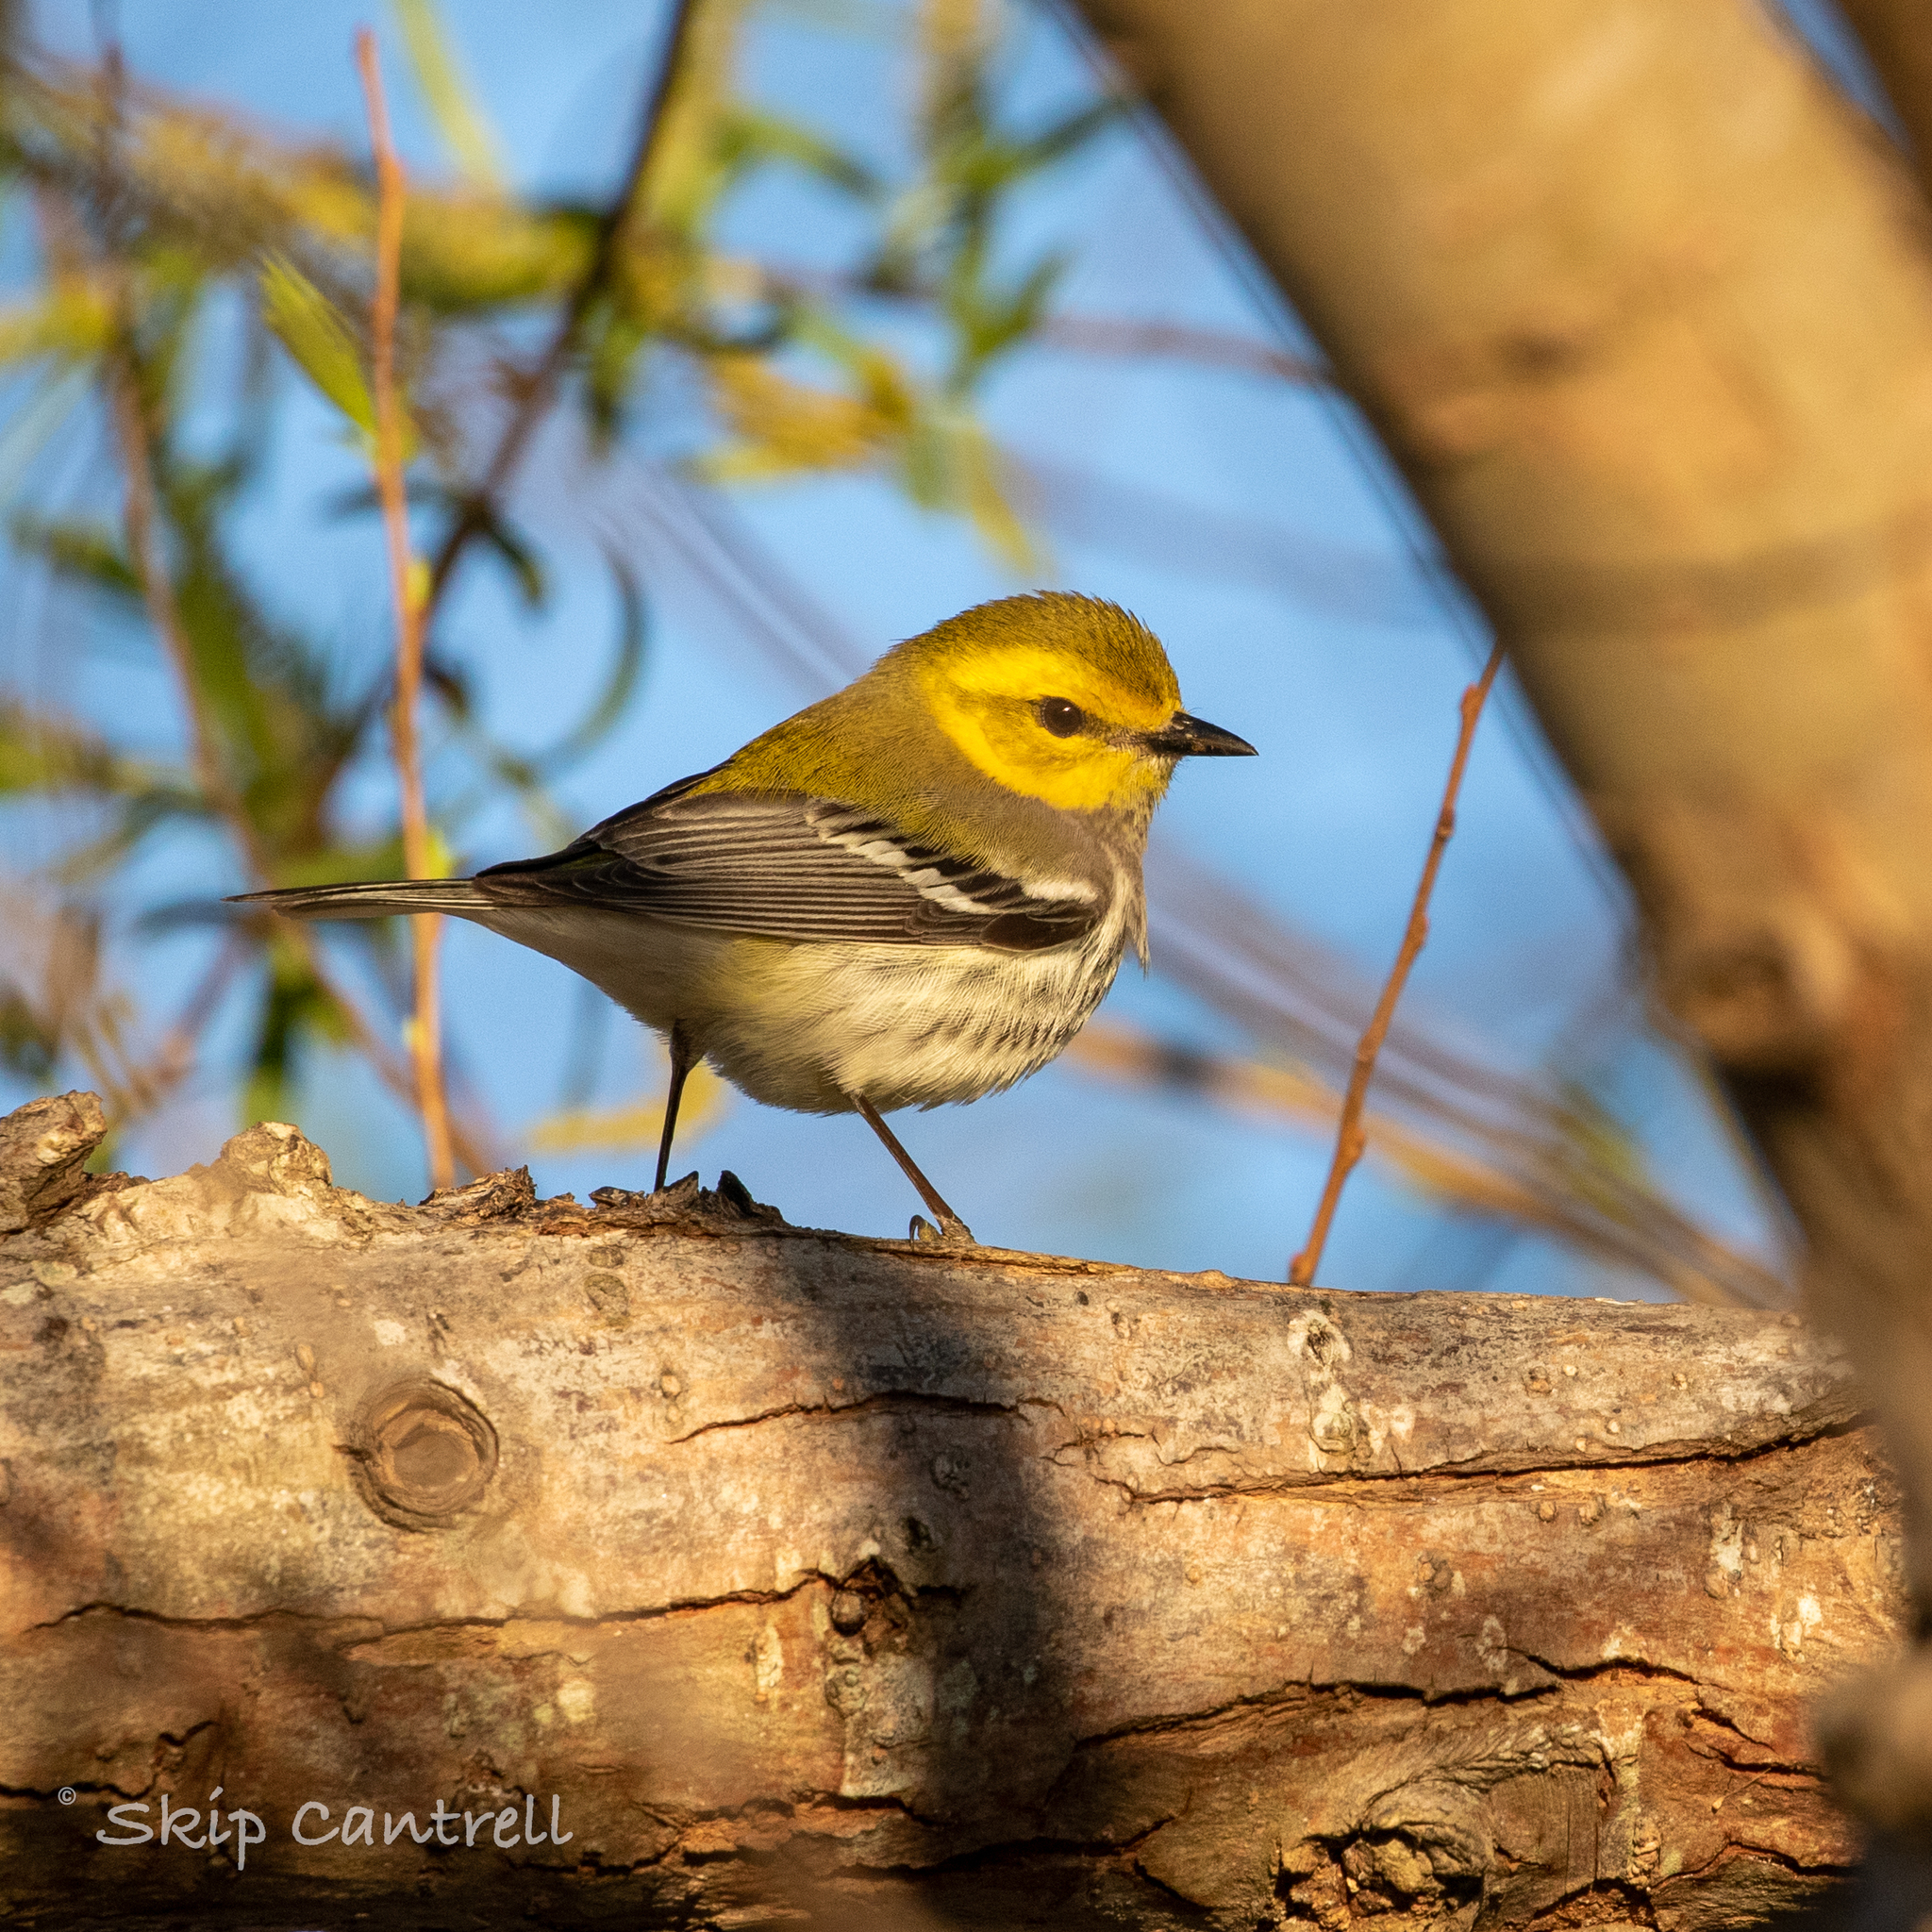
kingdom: Animalia
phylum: Chordata
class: Aves
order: Passeriformes
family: Parulidae
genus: Setophaga
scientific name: Setophaga virens
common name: Black-throated green warbler
